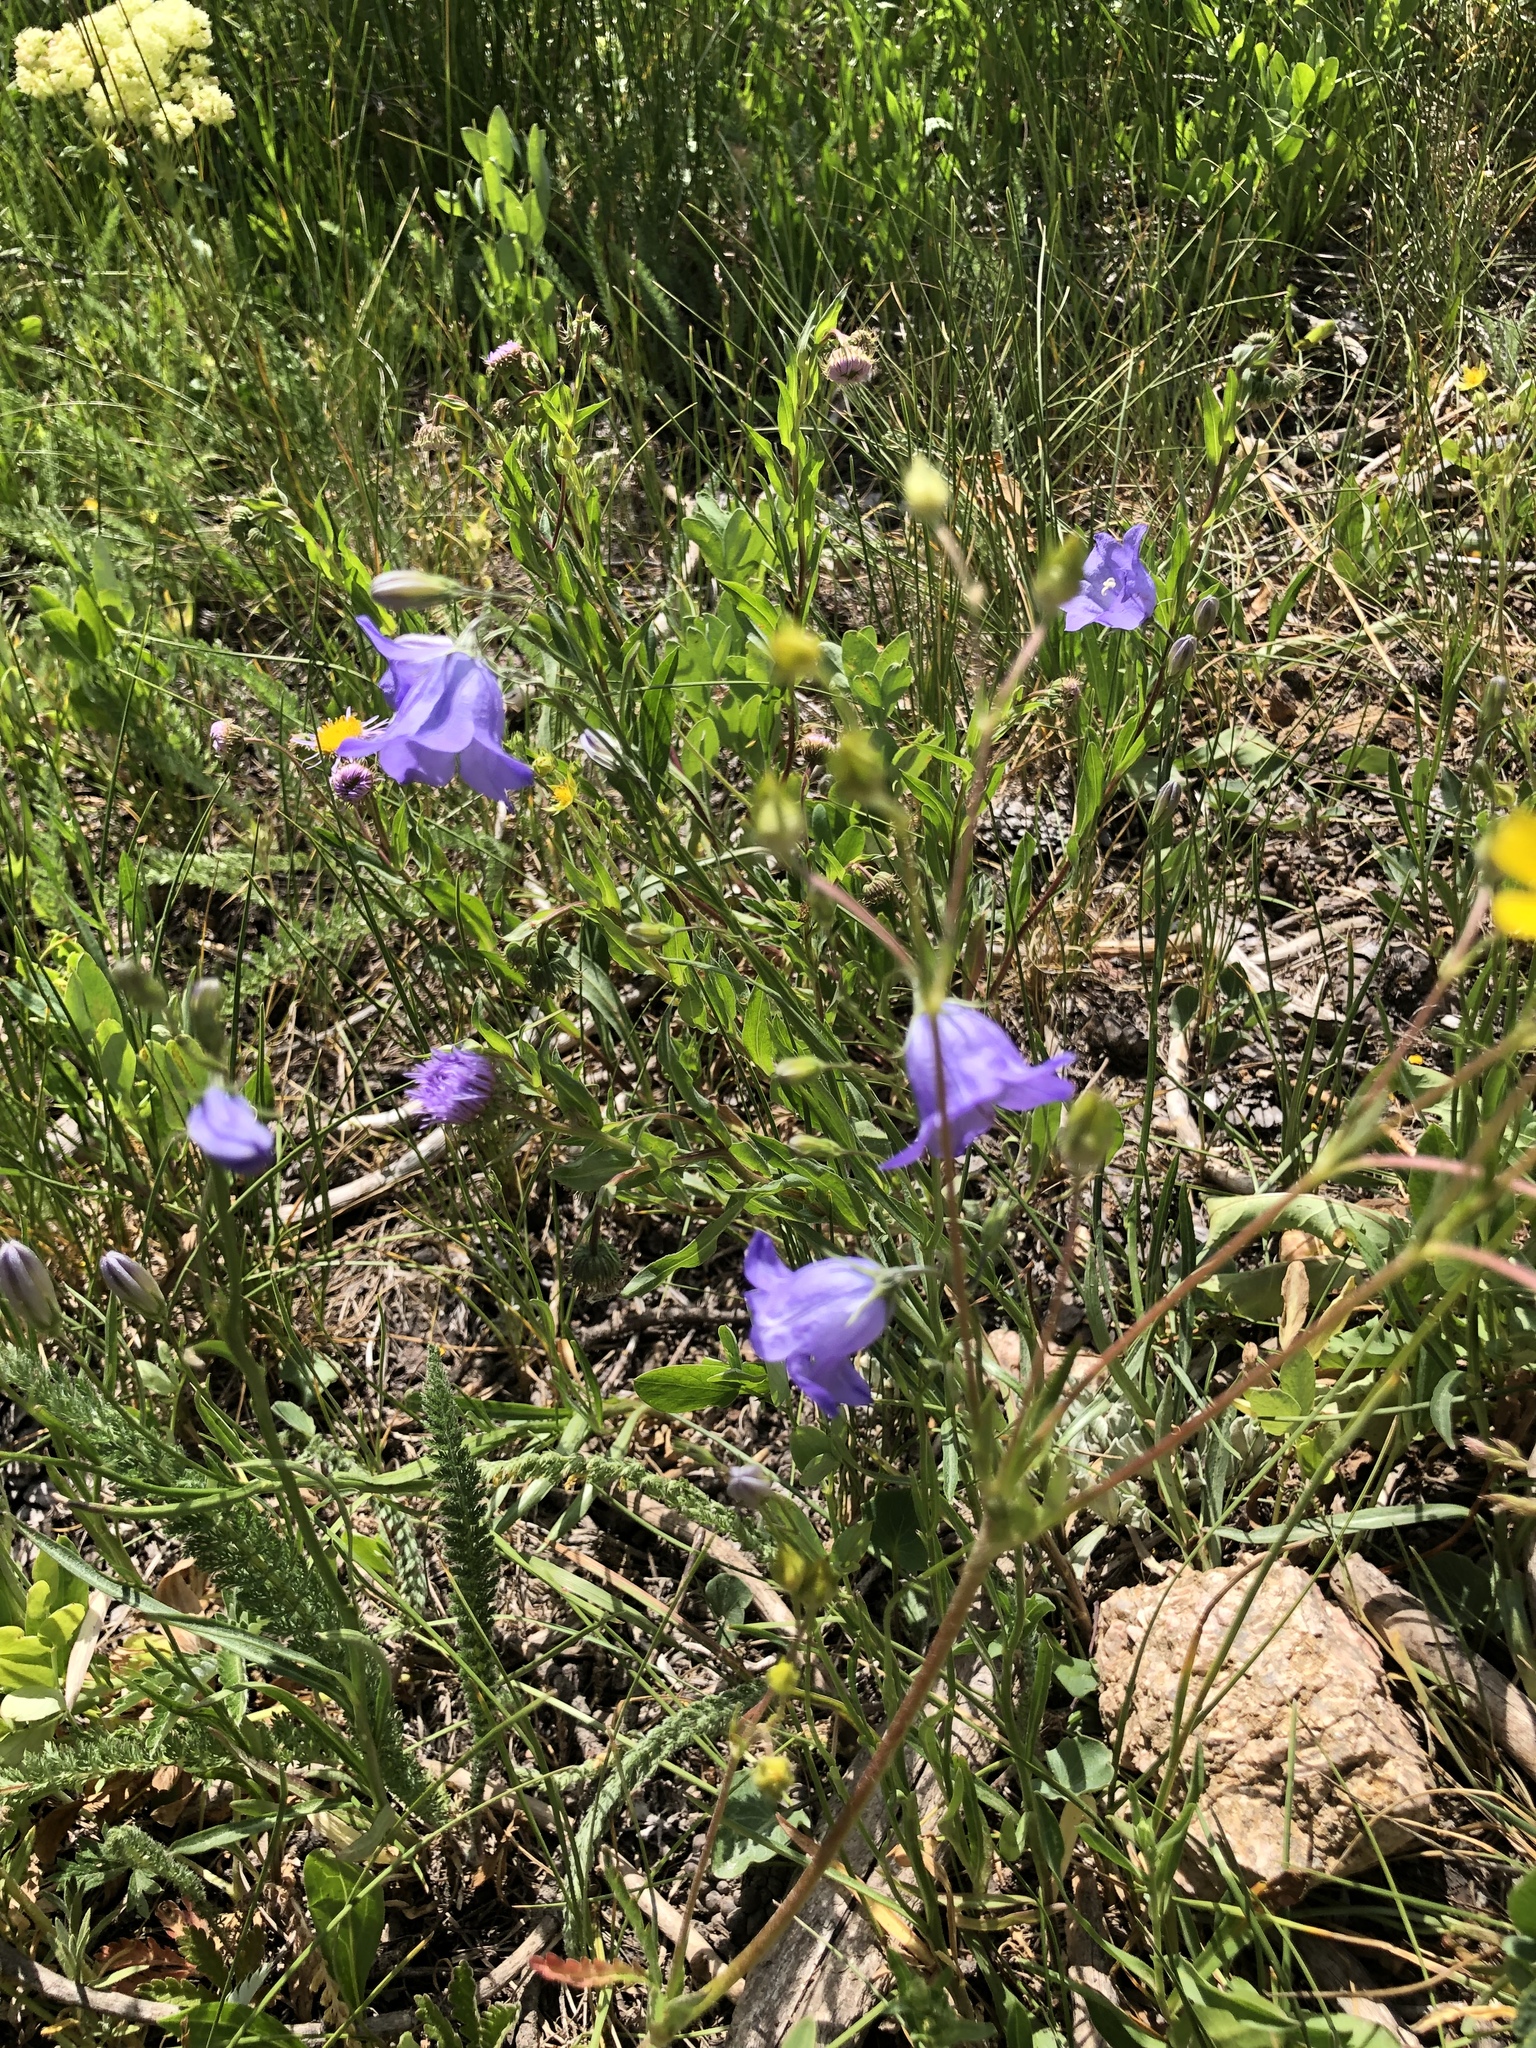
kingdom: Plantae
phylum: Tracheophyta
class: Magnoliopsida
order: Asterales
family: Campanulaceae
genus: Campanula
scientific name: Campanula petiolata
